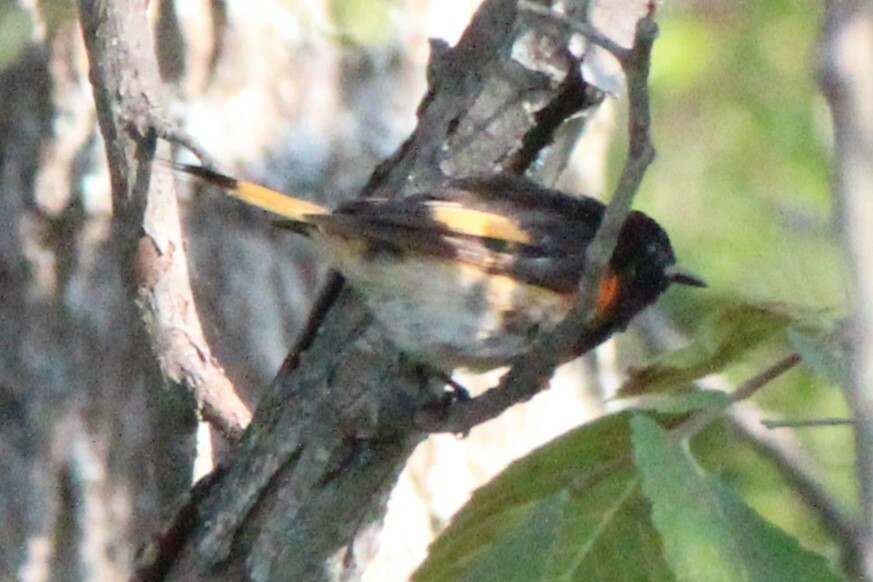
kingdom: Animalia
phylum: Chordata
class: Aves
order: Passeriformes
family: Parulidae
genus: Setophaga
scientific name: Setophaga ruticilla
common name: American redstart
